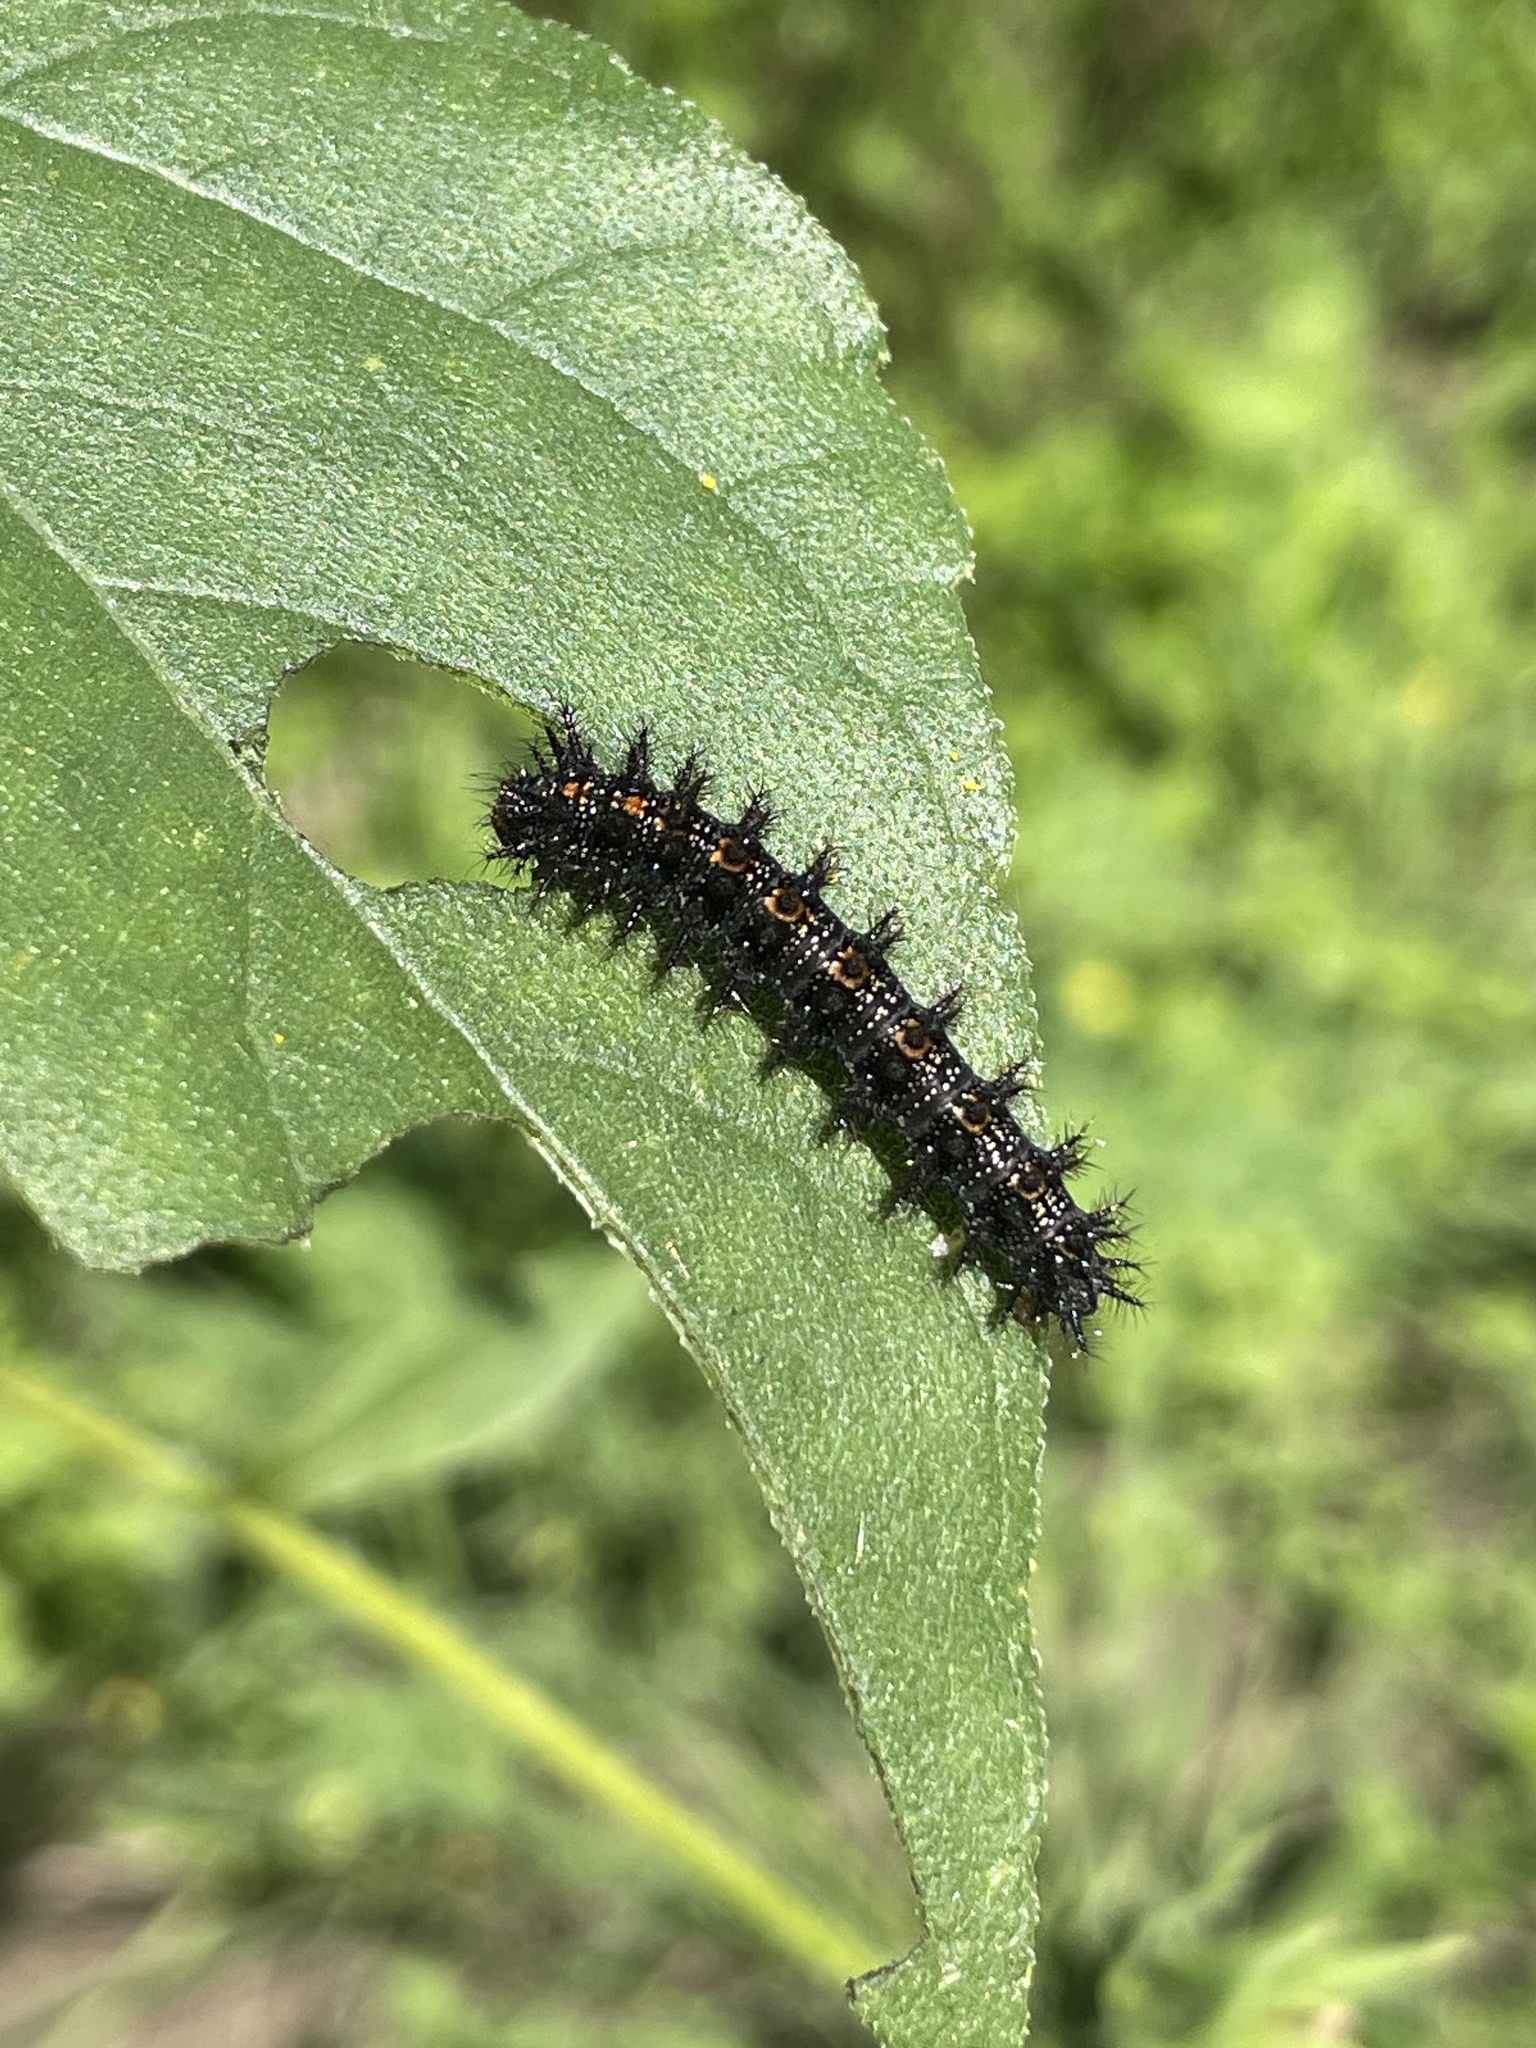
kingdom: Animalia
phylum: Arthropoda
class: Insecta
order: Lepidoptera
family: Nymphalidae
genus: Chlosyne
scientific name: Chlosyne lacinia
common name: Bordered patch
